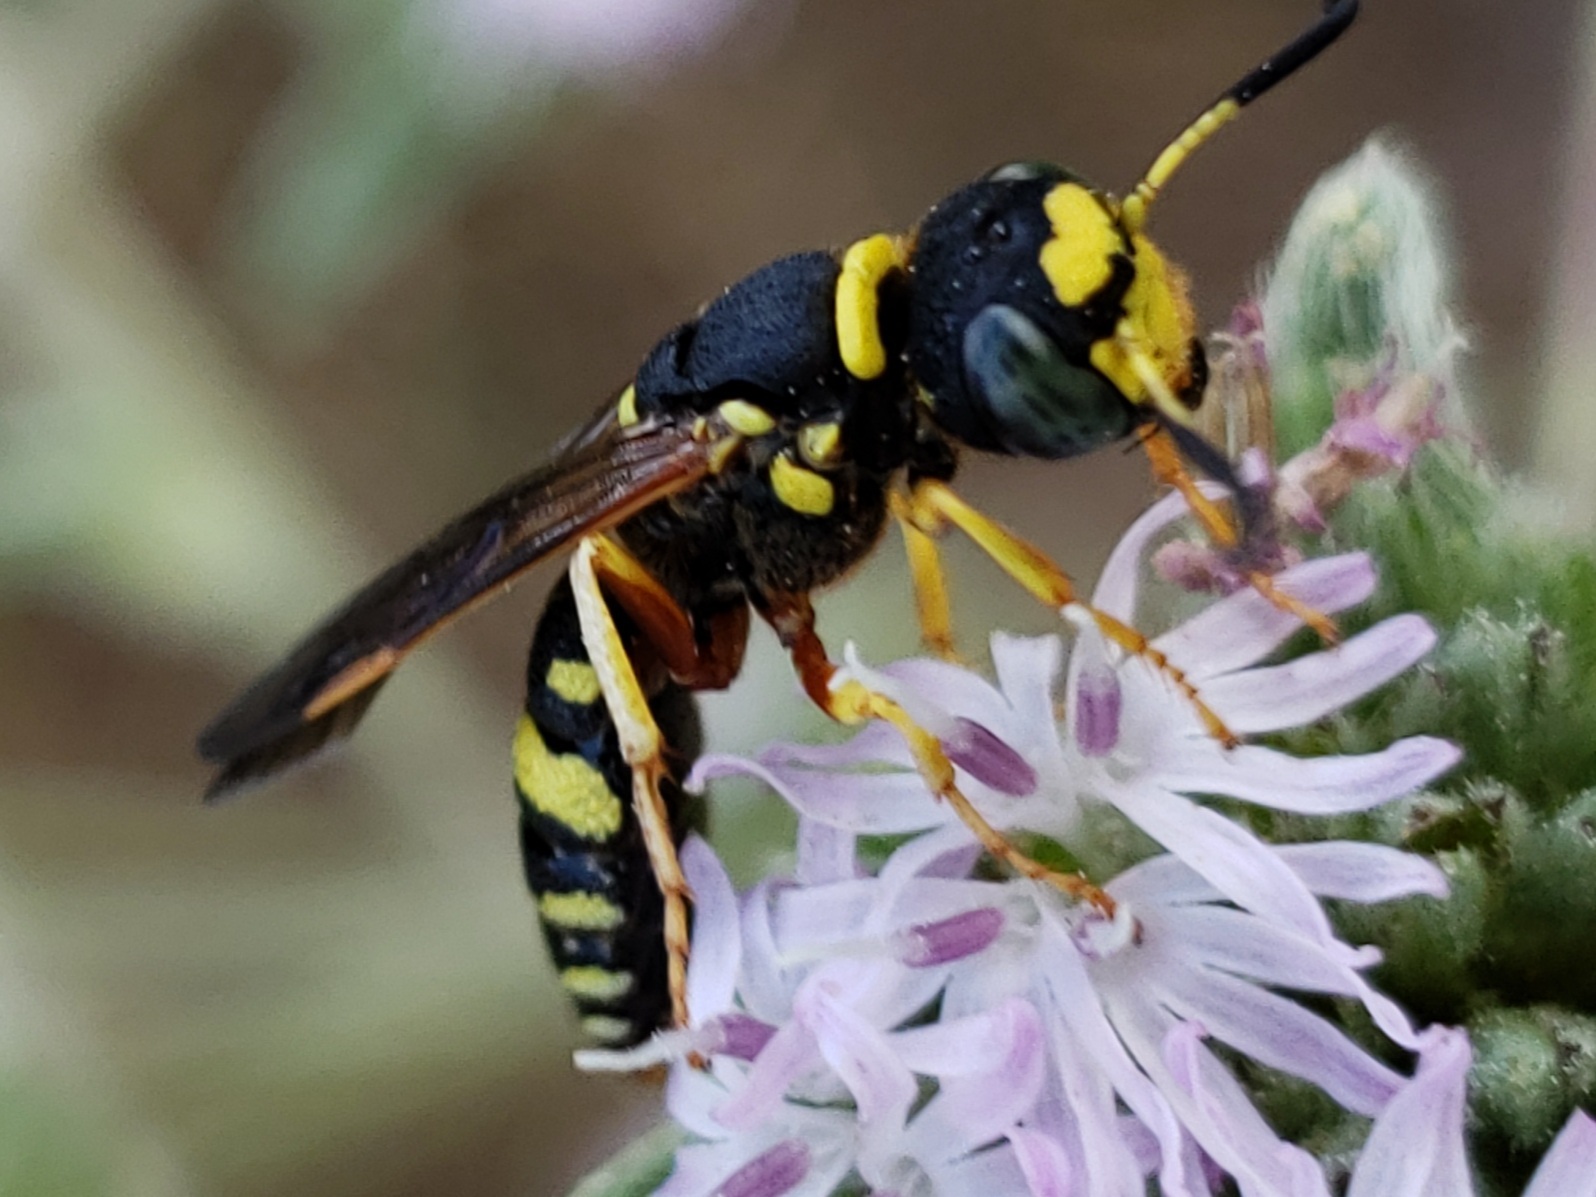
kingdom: Animalia
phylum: Arthropoda
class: Insecta
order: Hymenoptera
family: Crabronidae
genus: Philanthus
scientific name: Philanthus ventilabris
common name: Bee-killer wasp
